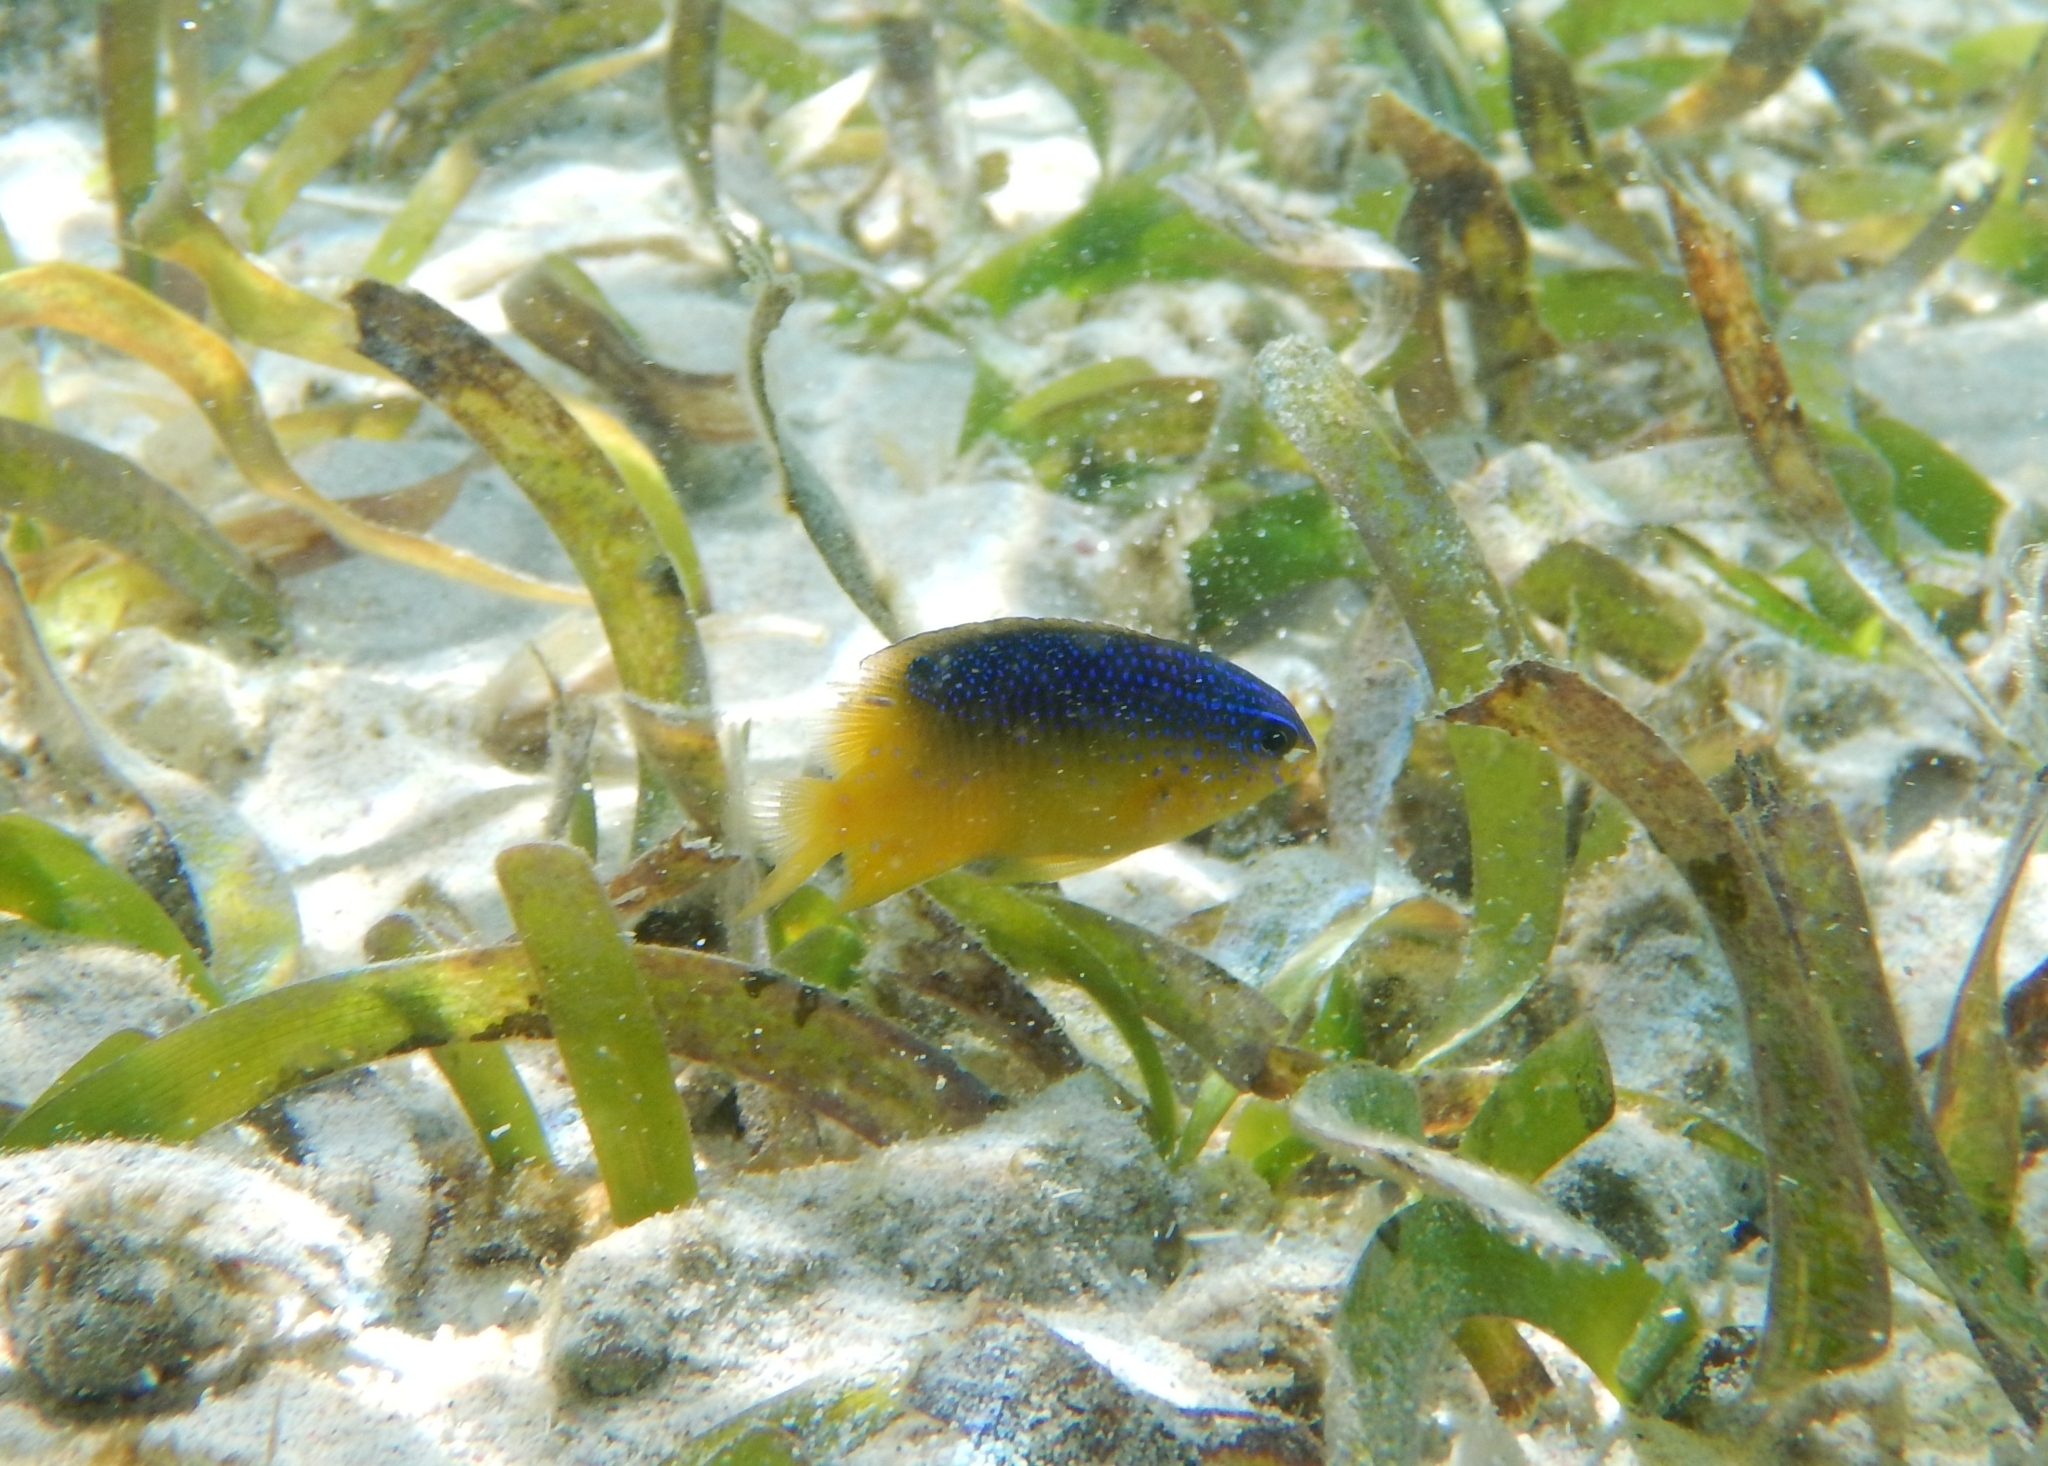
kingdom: Animalia
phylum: Chordata
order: Perciformes
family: Pomacentridae
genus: Stegastes
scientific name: Stegastes leucostictus
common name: Beaugregory
